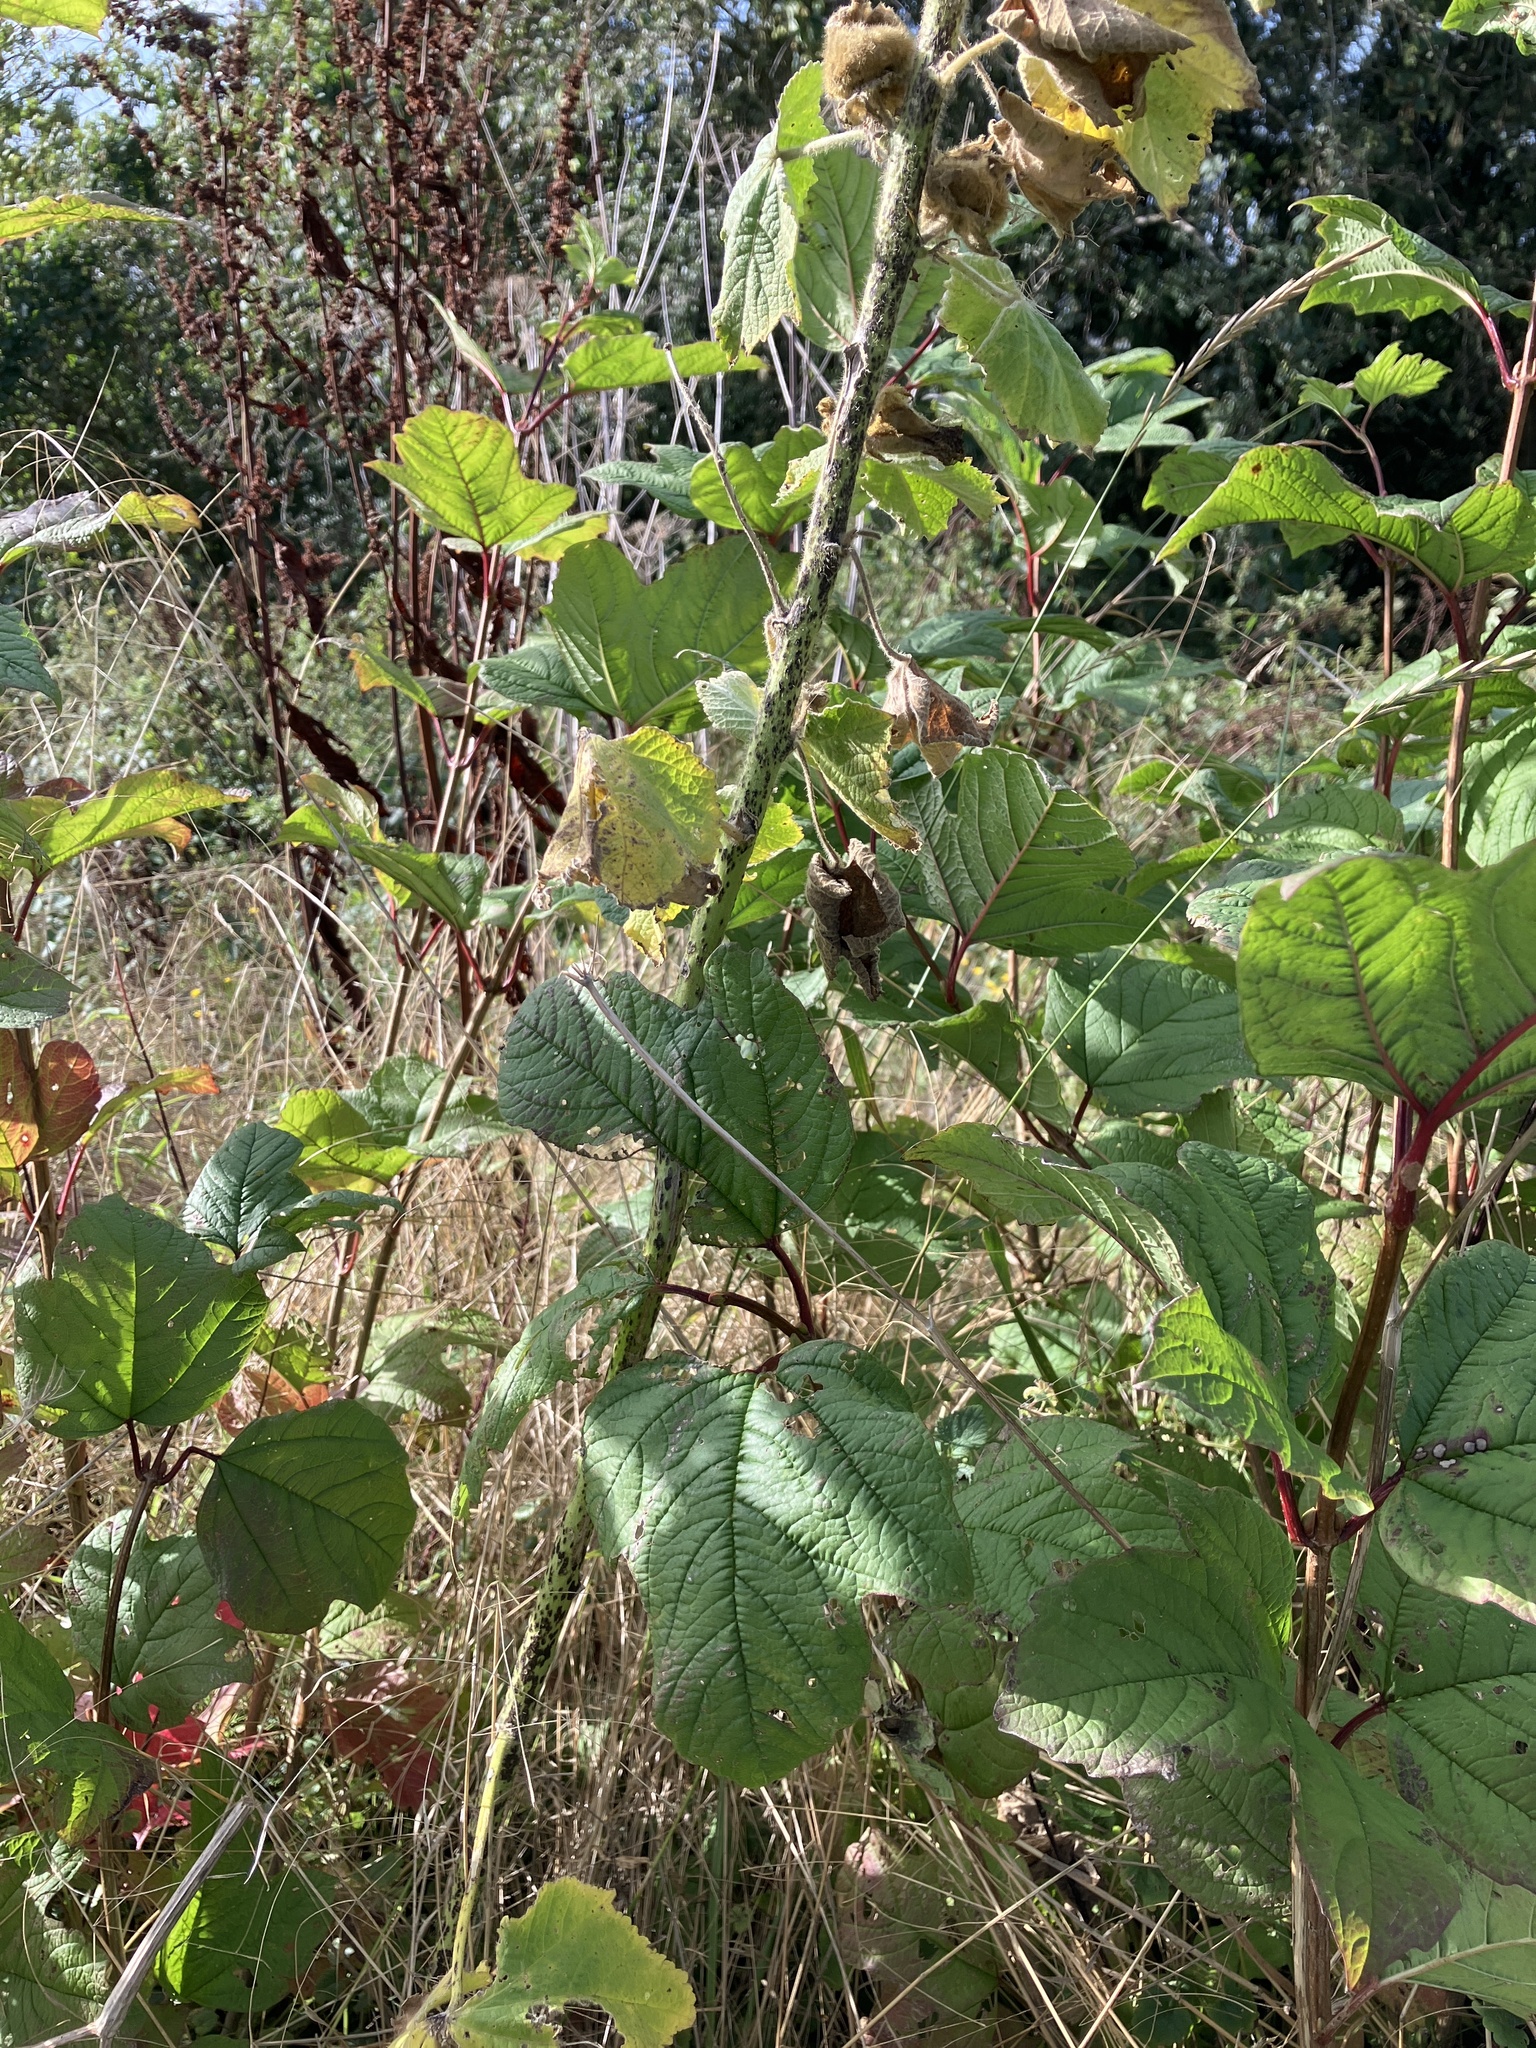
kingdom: Plantae
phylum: Tracheophyta
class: Magnoliopsida
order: Malvales
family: Malvaceae
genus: Alcea
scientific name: Alcea rosea
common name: Hollyhock
